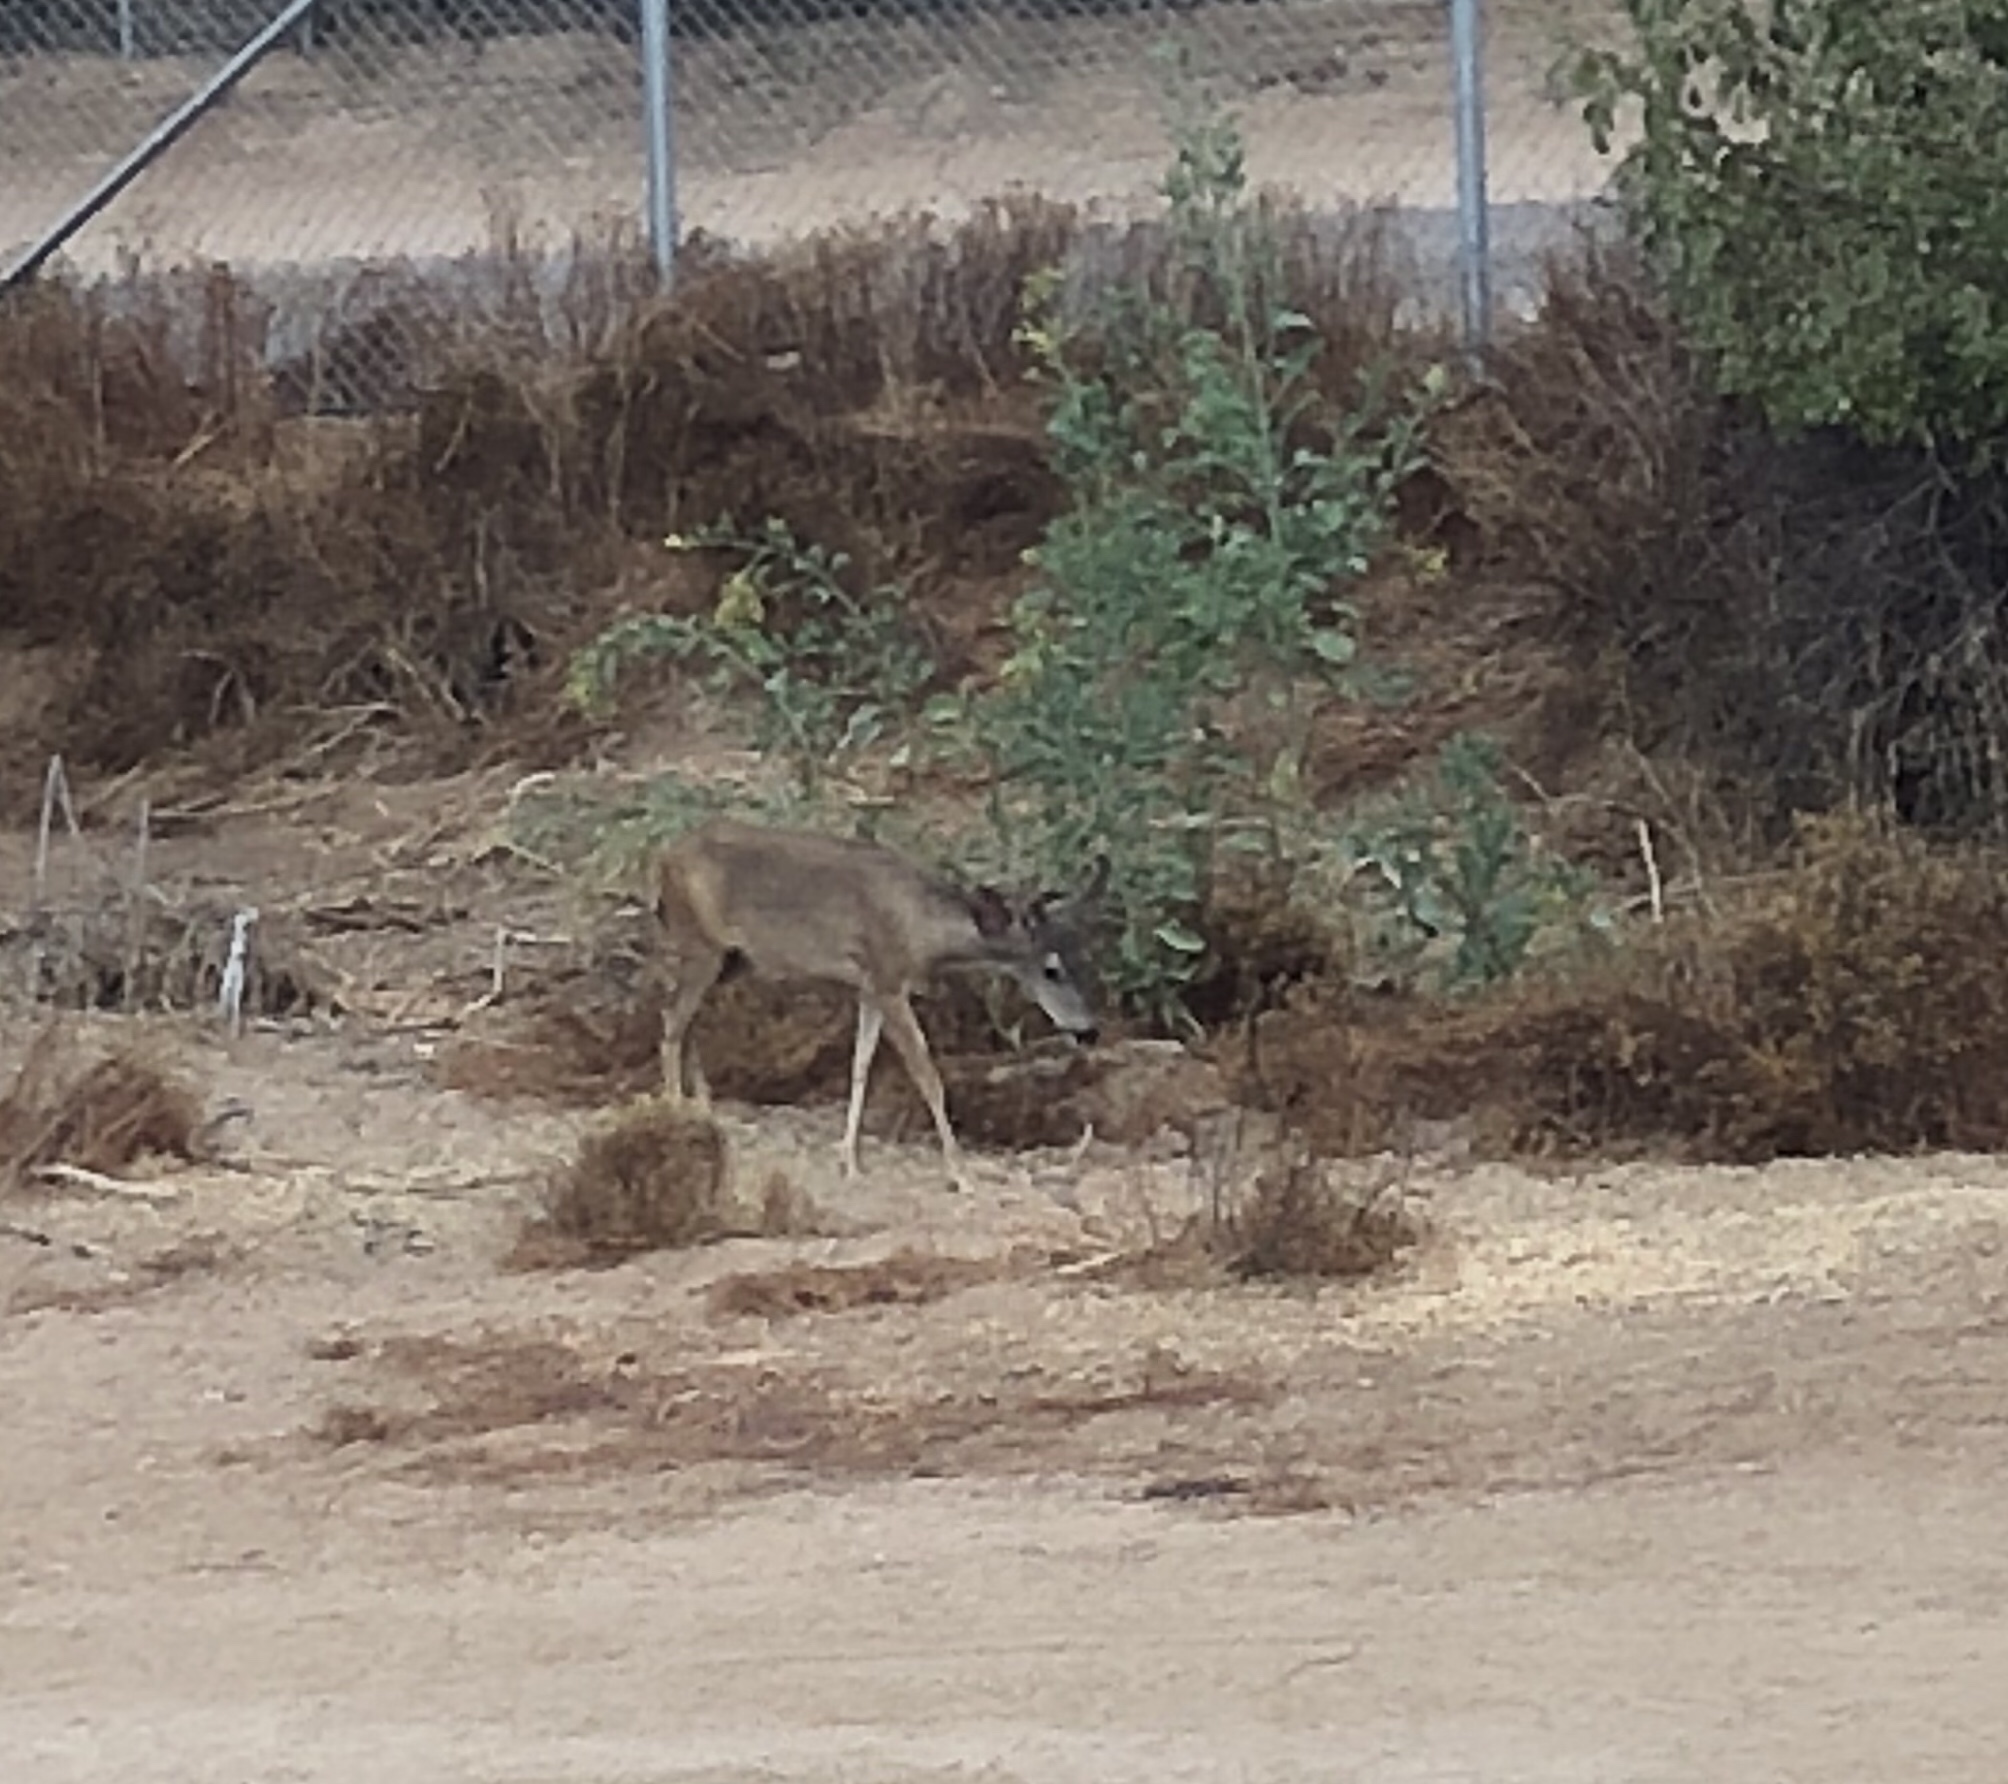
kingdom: Animalia
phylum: Chordata
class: Mammalia
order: Artiodactyla
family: Cervidae
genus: Odocoileus
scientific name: Odocoileus hemionus
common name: Mule deer
